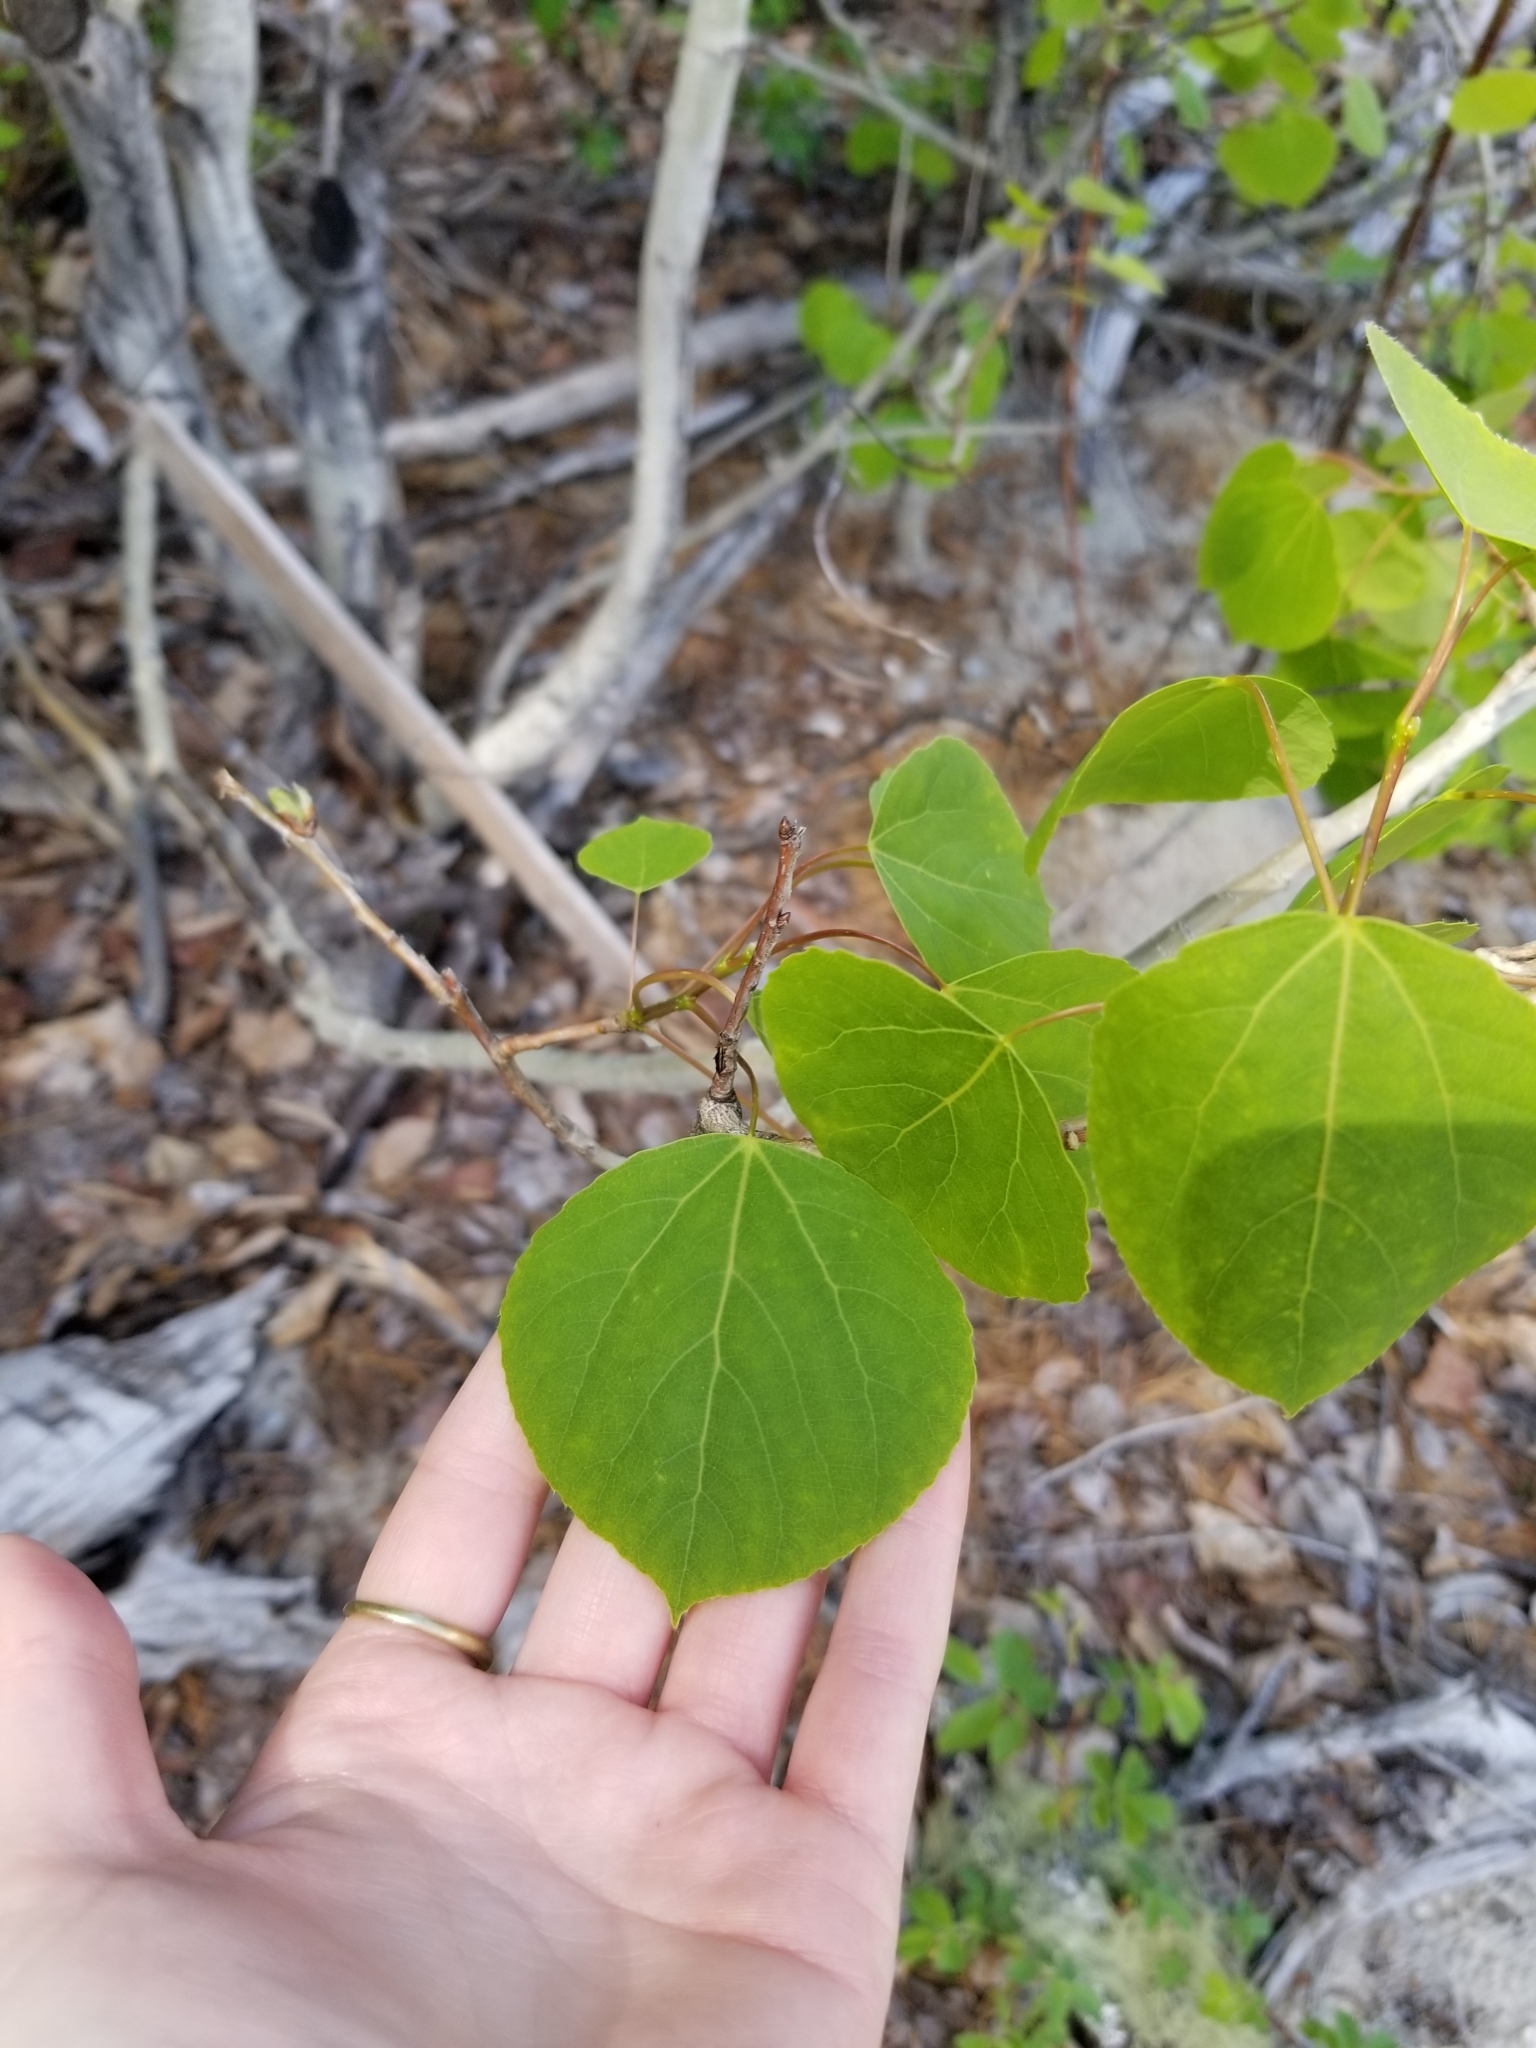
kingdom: Plantae
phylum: Tracheophyta
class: Magnoliopsida
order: Malpighiales
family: Salicaceae
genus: Populus
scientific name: Populus tremuloides
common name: Quaking aspen
